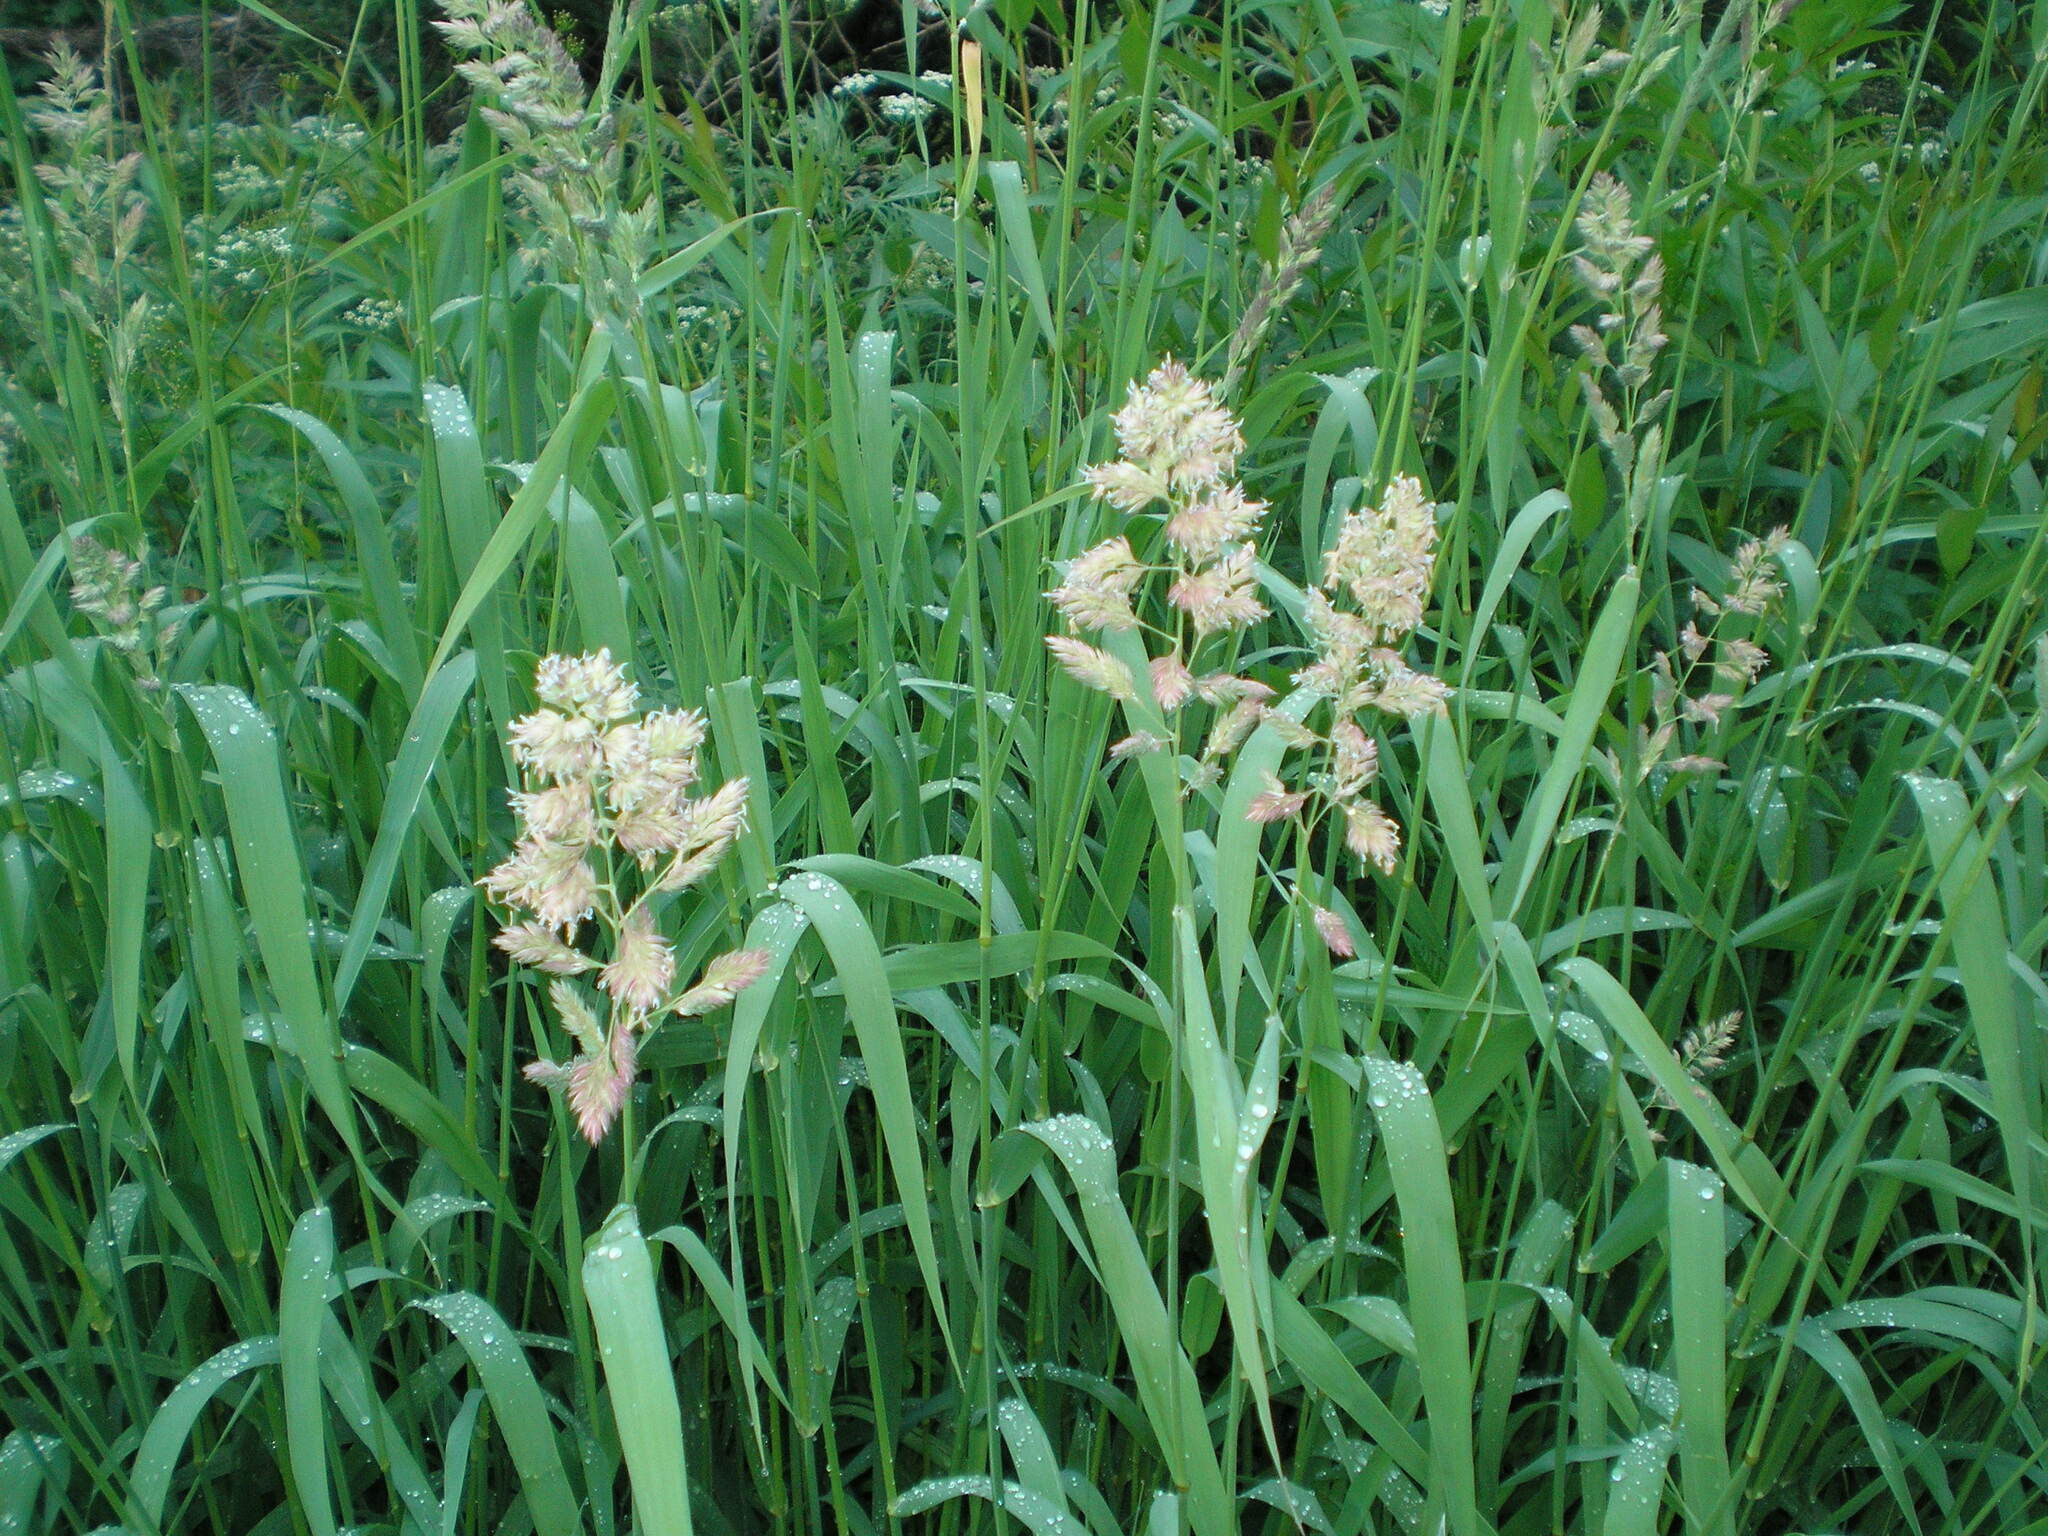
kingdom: Plantae
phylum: Tracheophyta
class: Liliopsida
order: Poales
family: Poaceae
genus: Phalaris
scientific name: Phalaris arundinacea
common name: Reed canary-grass
